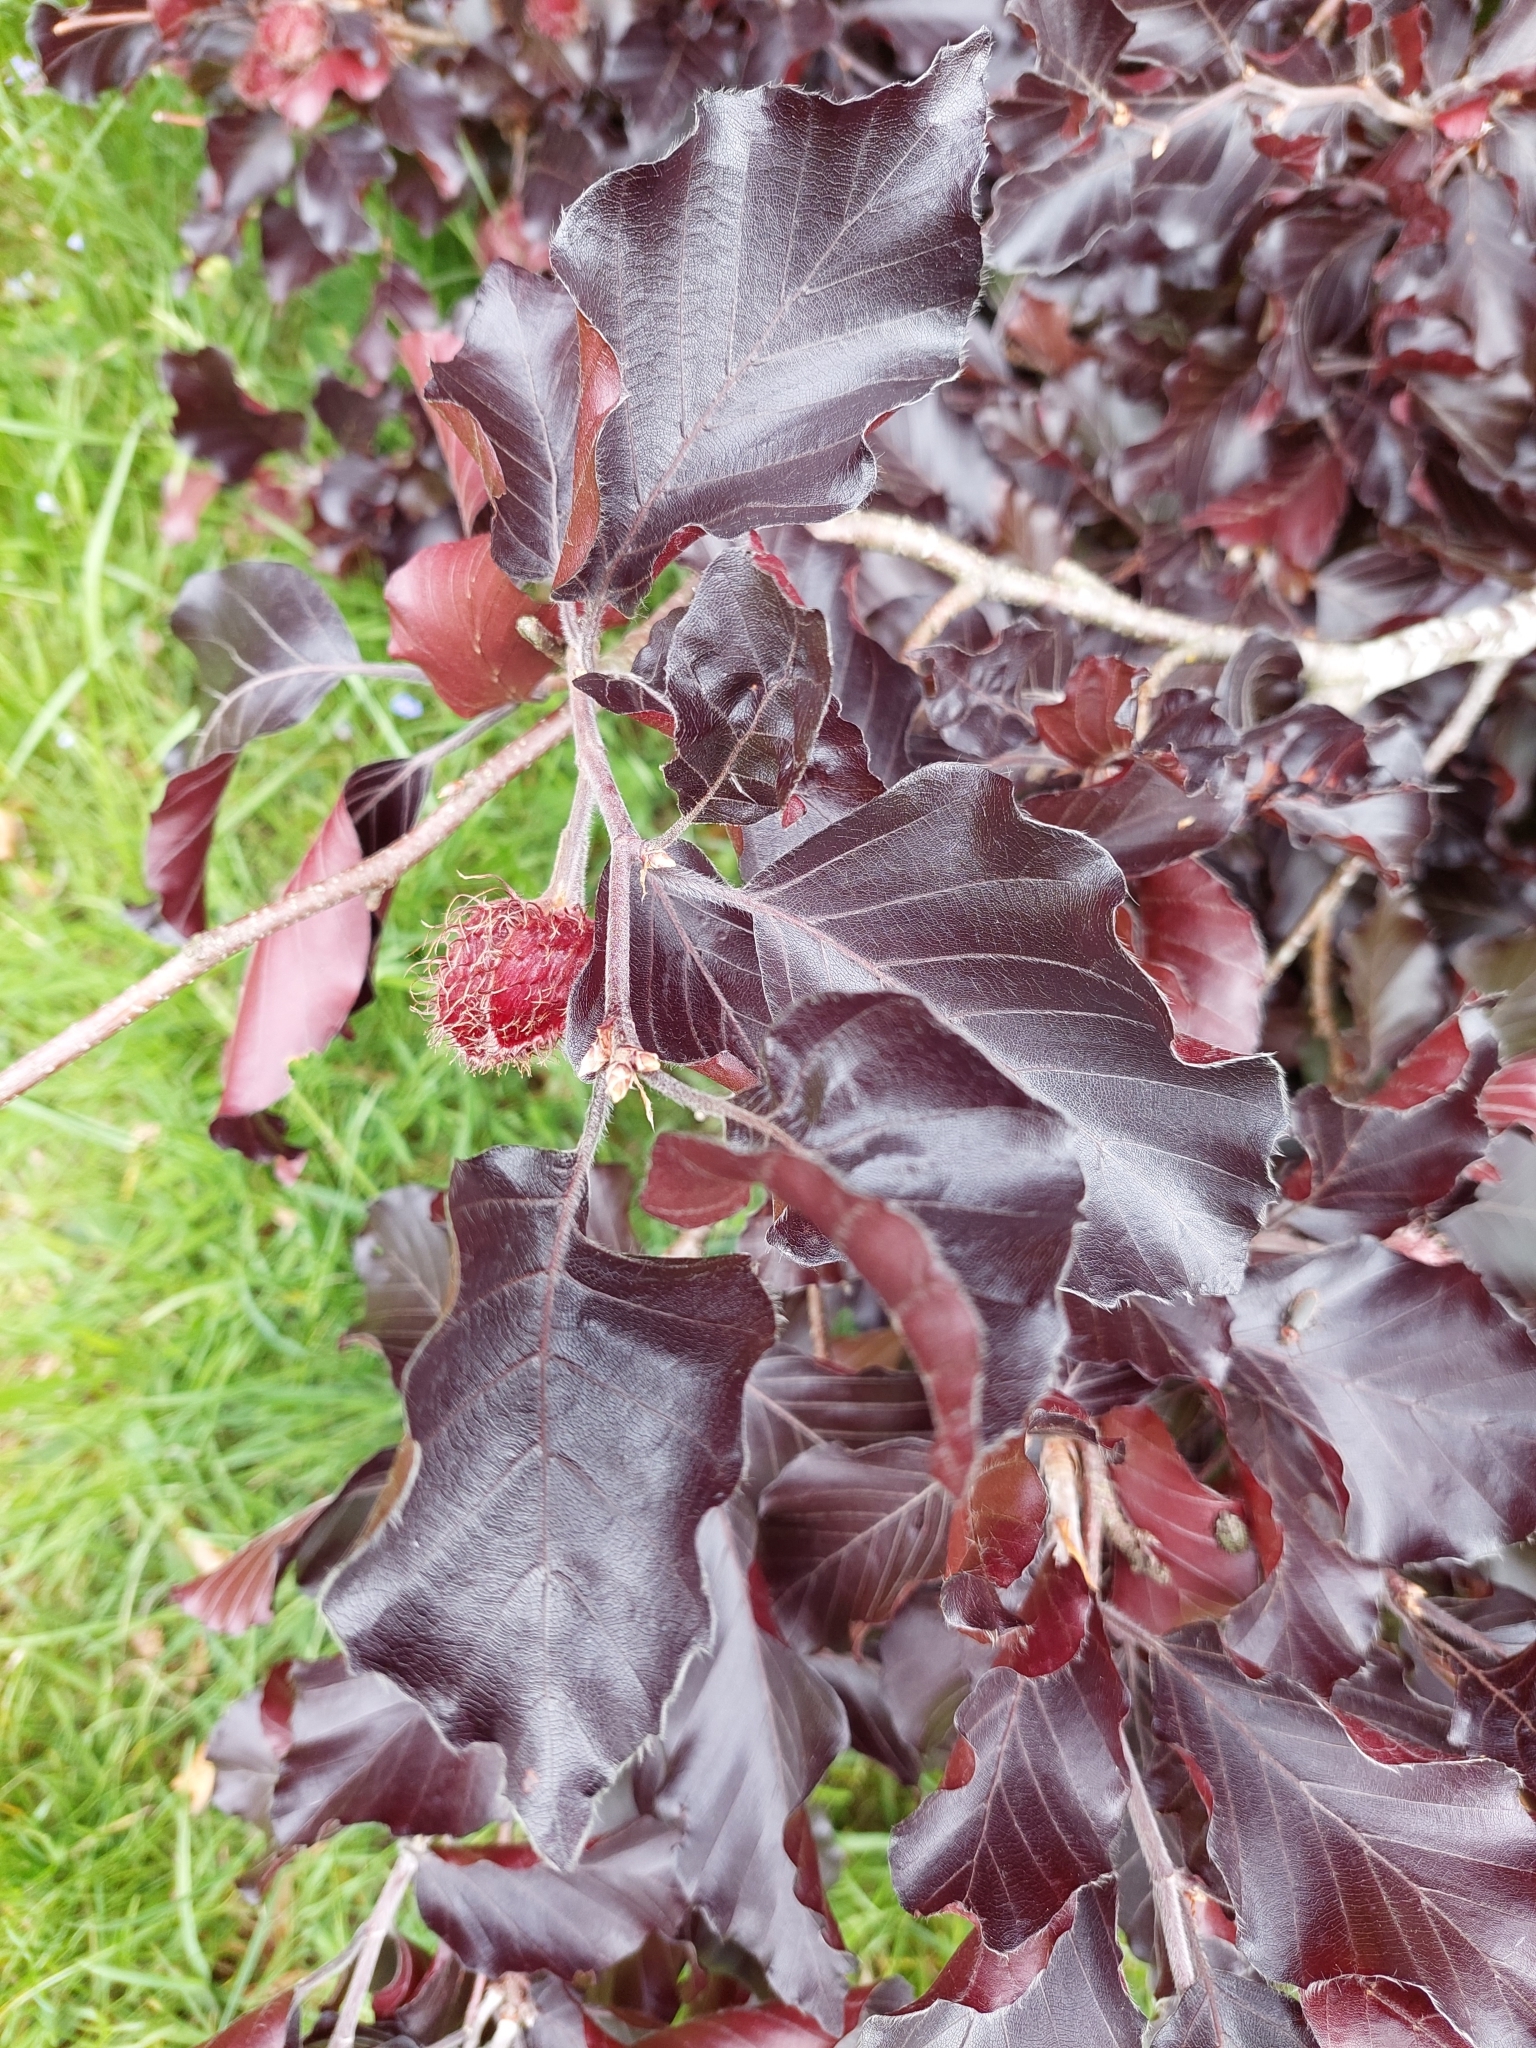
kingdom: Plantae
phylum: Tracheophyta
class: Magnoliopsida
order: Fagales
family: Fagaceae
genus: Fagus
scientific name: Fagus sylvatica
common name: Beech
